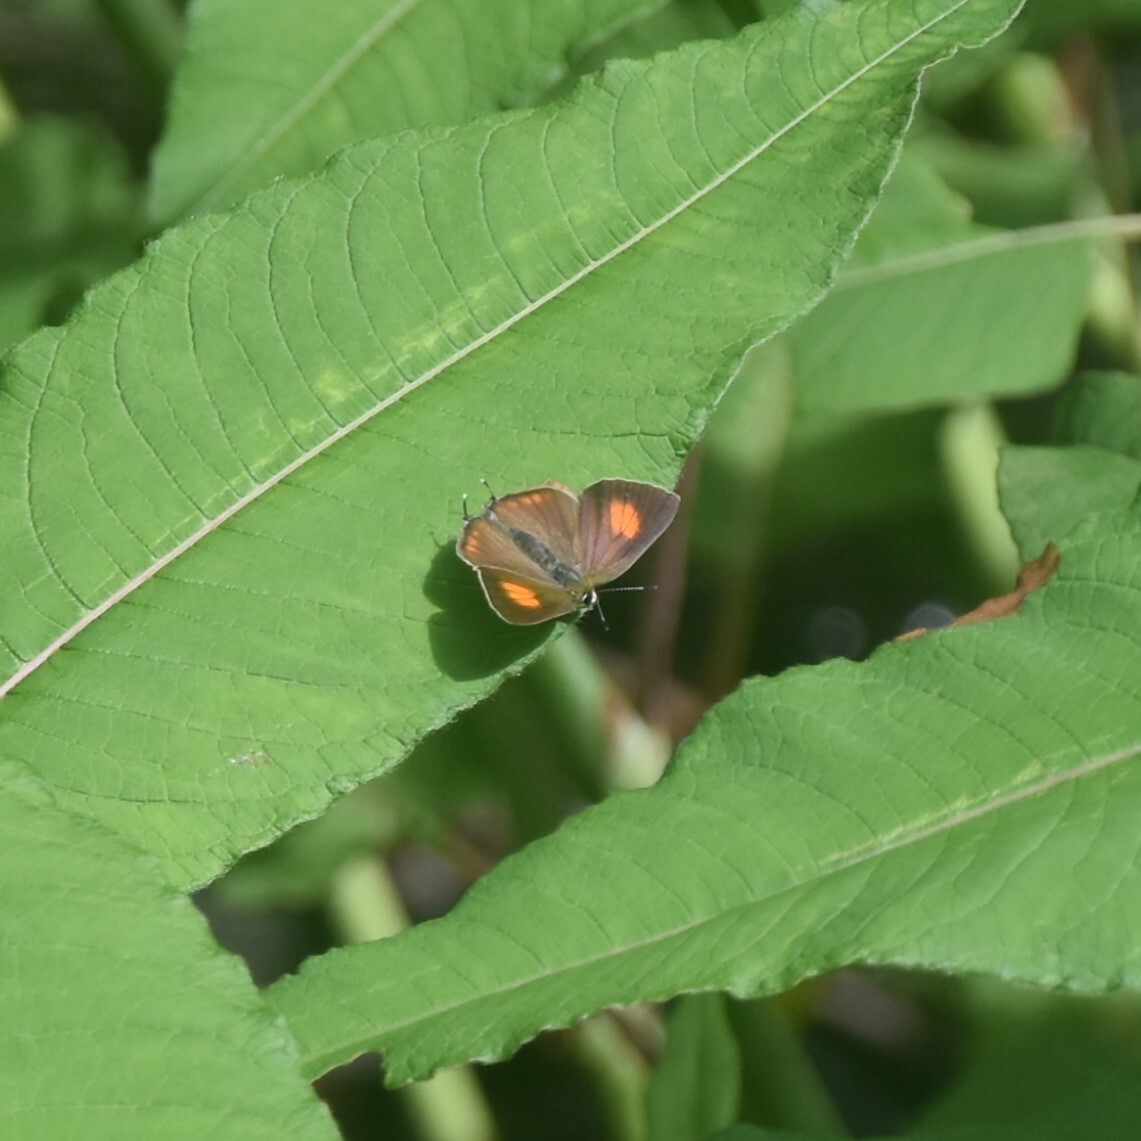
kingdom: Animalia
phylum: Arthropoda
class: Insecta
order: Lepidoptera
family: Lycaenidae
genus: Rapala
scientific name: Rapala selira
